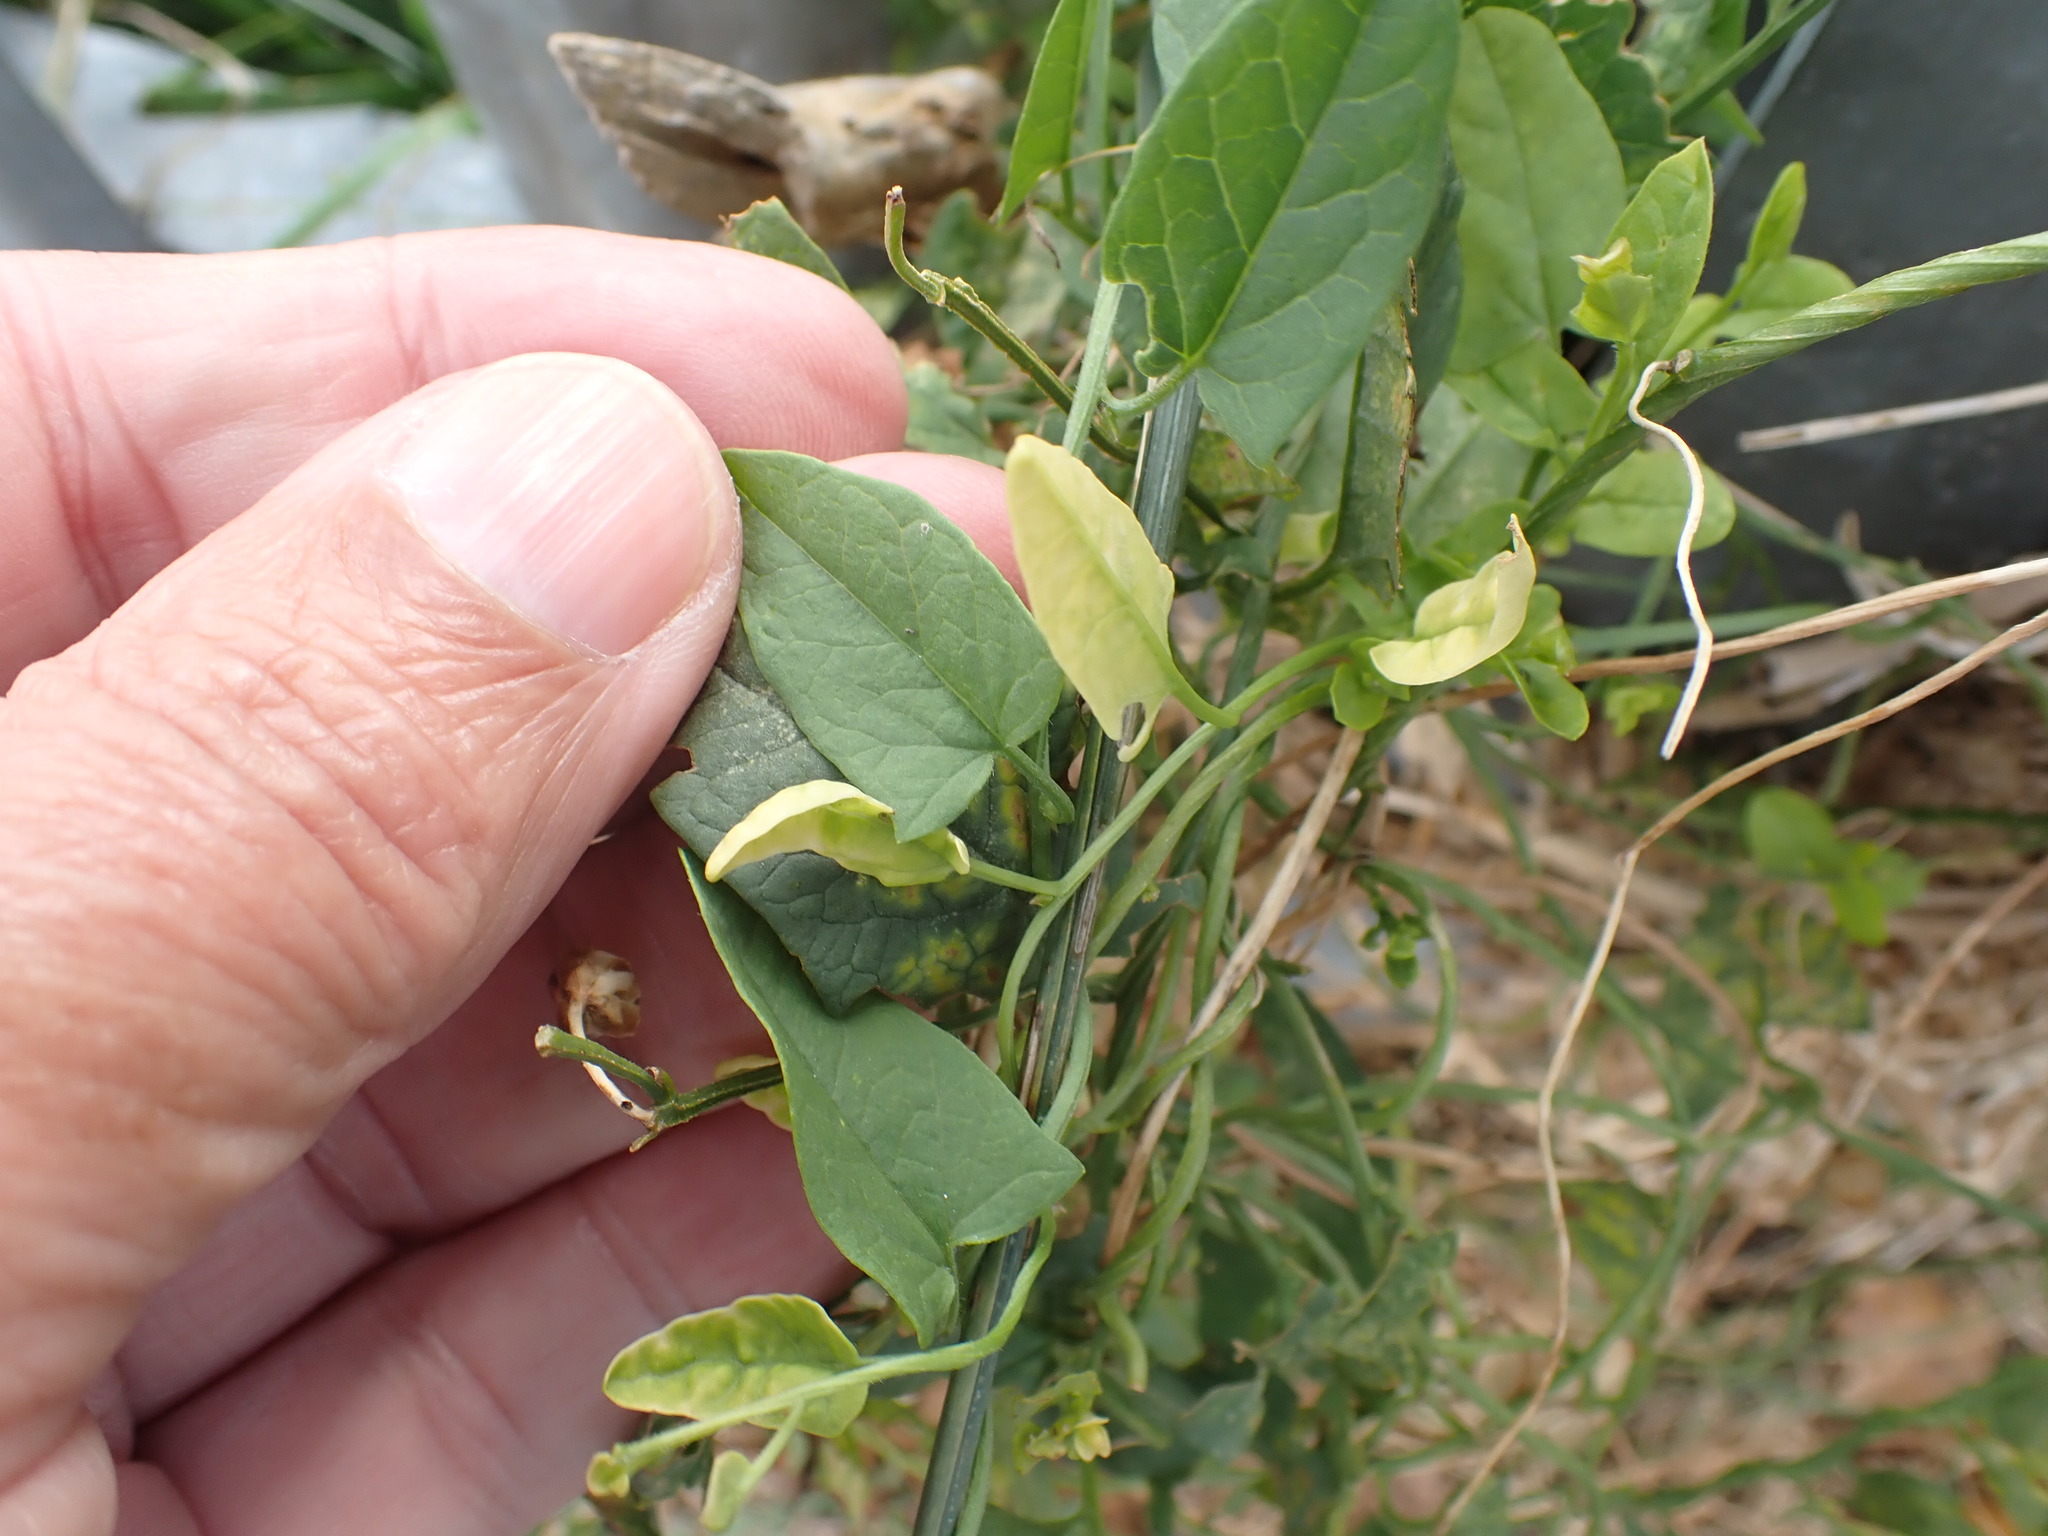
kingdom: Plantae
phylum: Tracheophyta
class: Magnoliopsida
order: Solanales
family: Convolvulaceae
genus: Convolvulus
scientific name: Convolvulus arvensis
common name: Field bindweed
